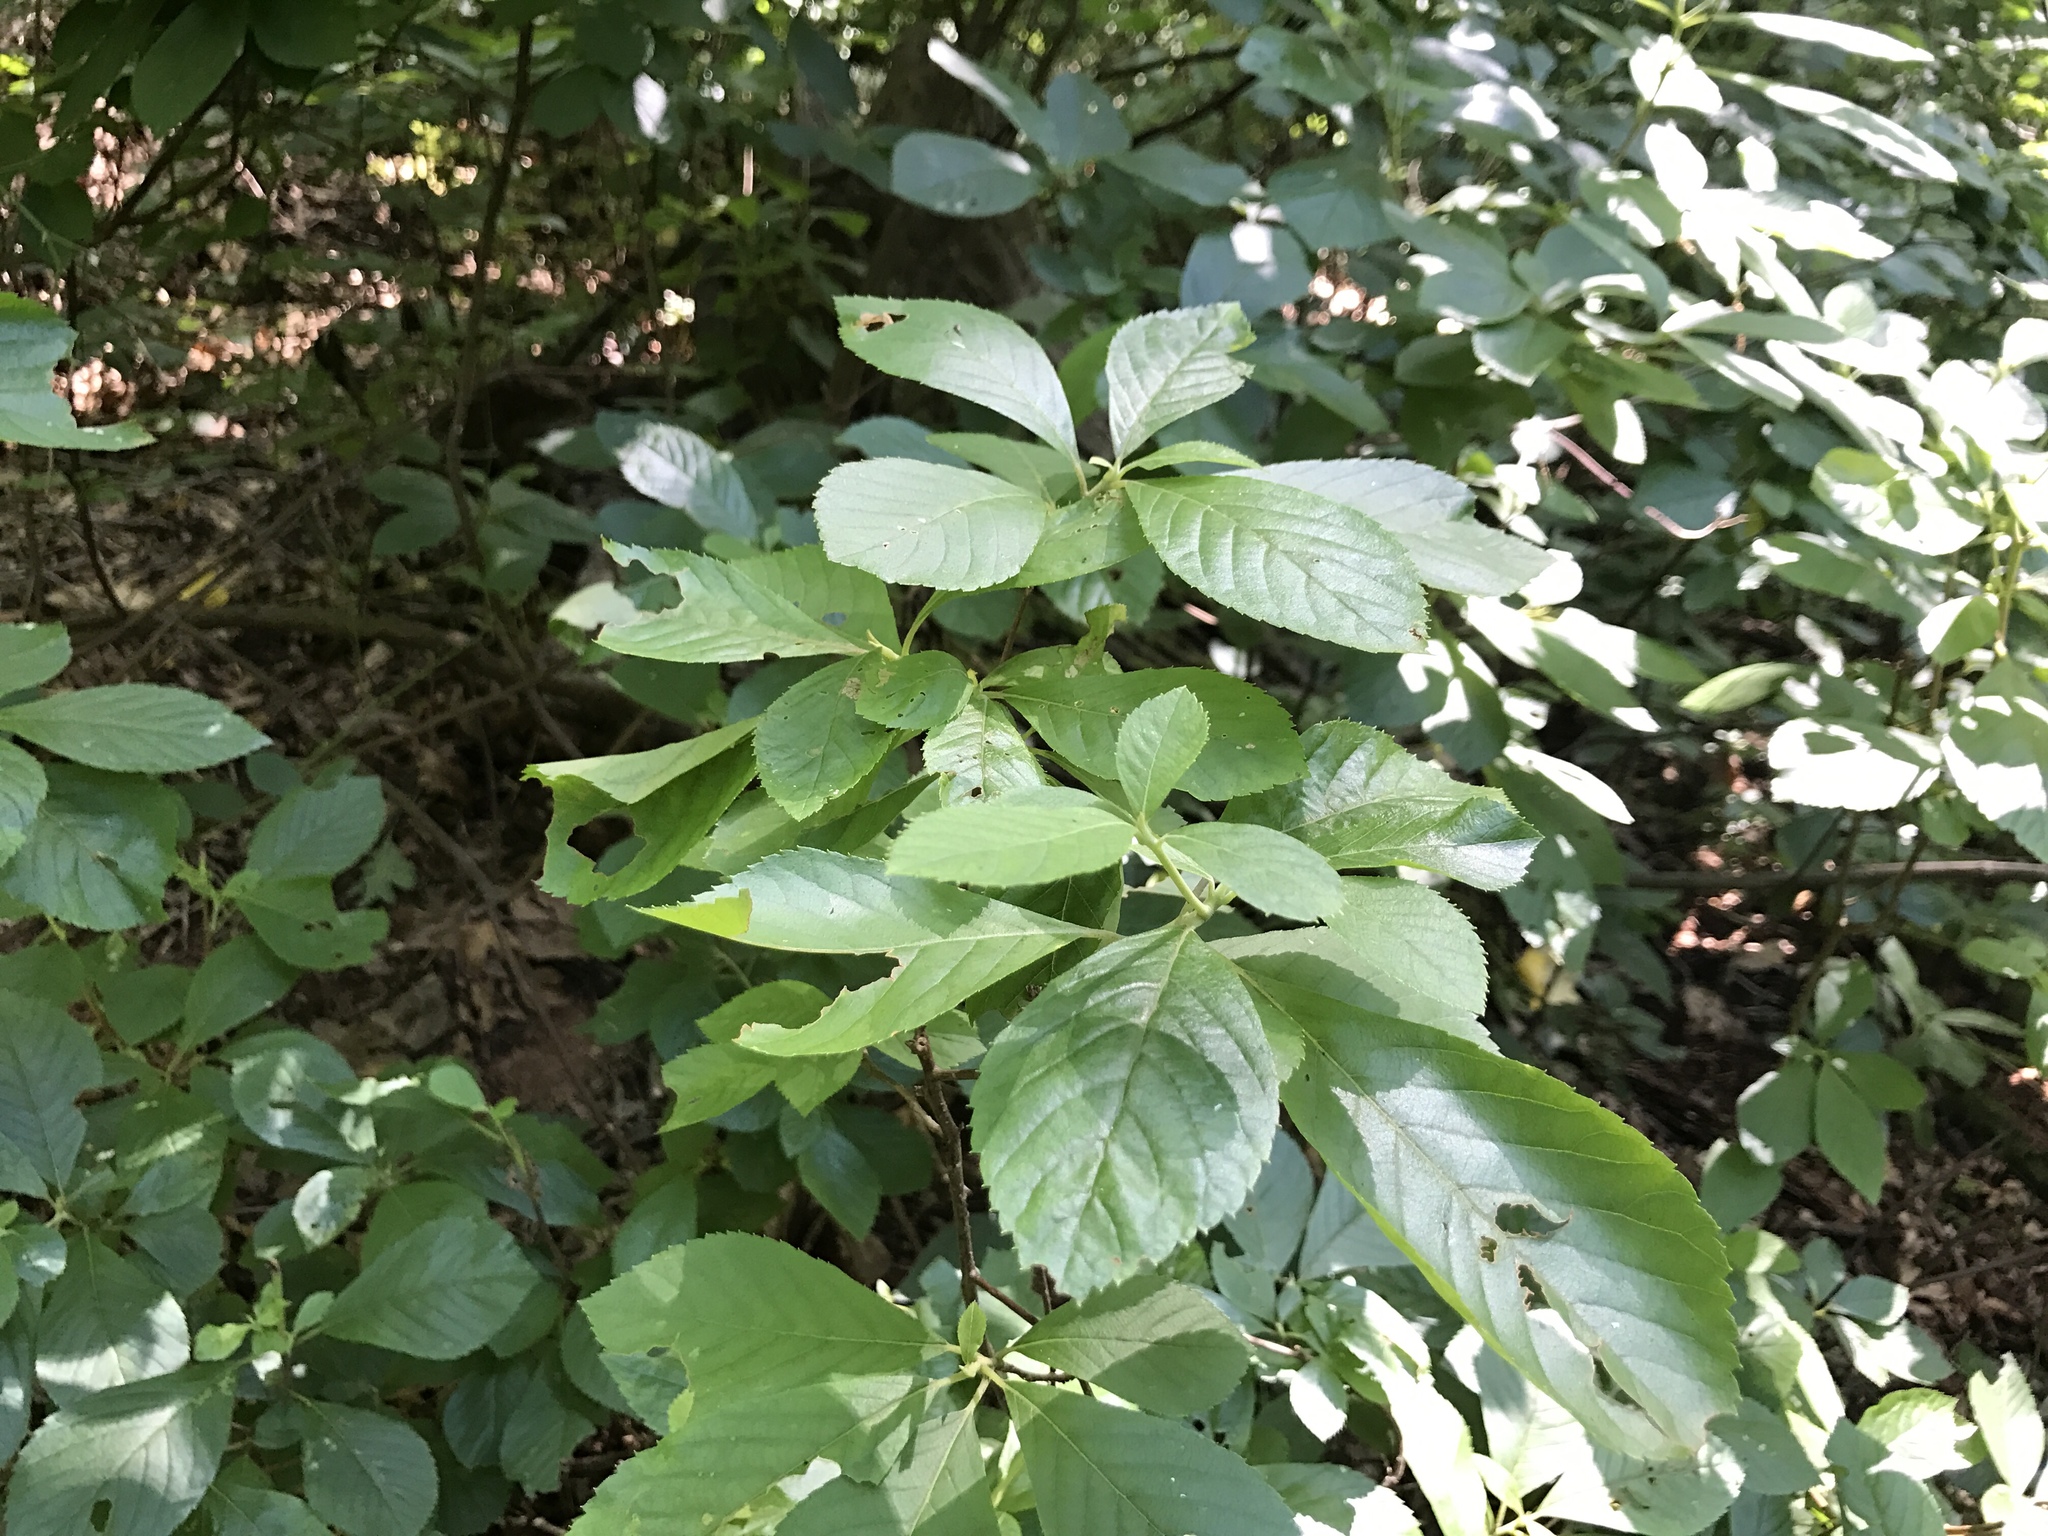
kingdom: Plantae
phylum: Tracheophyta
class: Magnoliopsida
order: Ericales
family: Clethraceae
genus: Clethra
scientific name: Clethra alnifolia
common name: Sweet pepperbush
